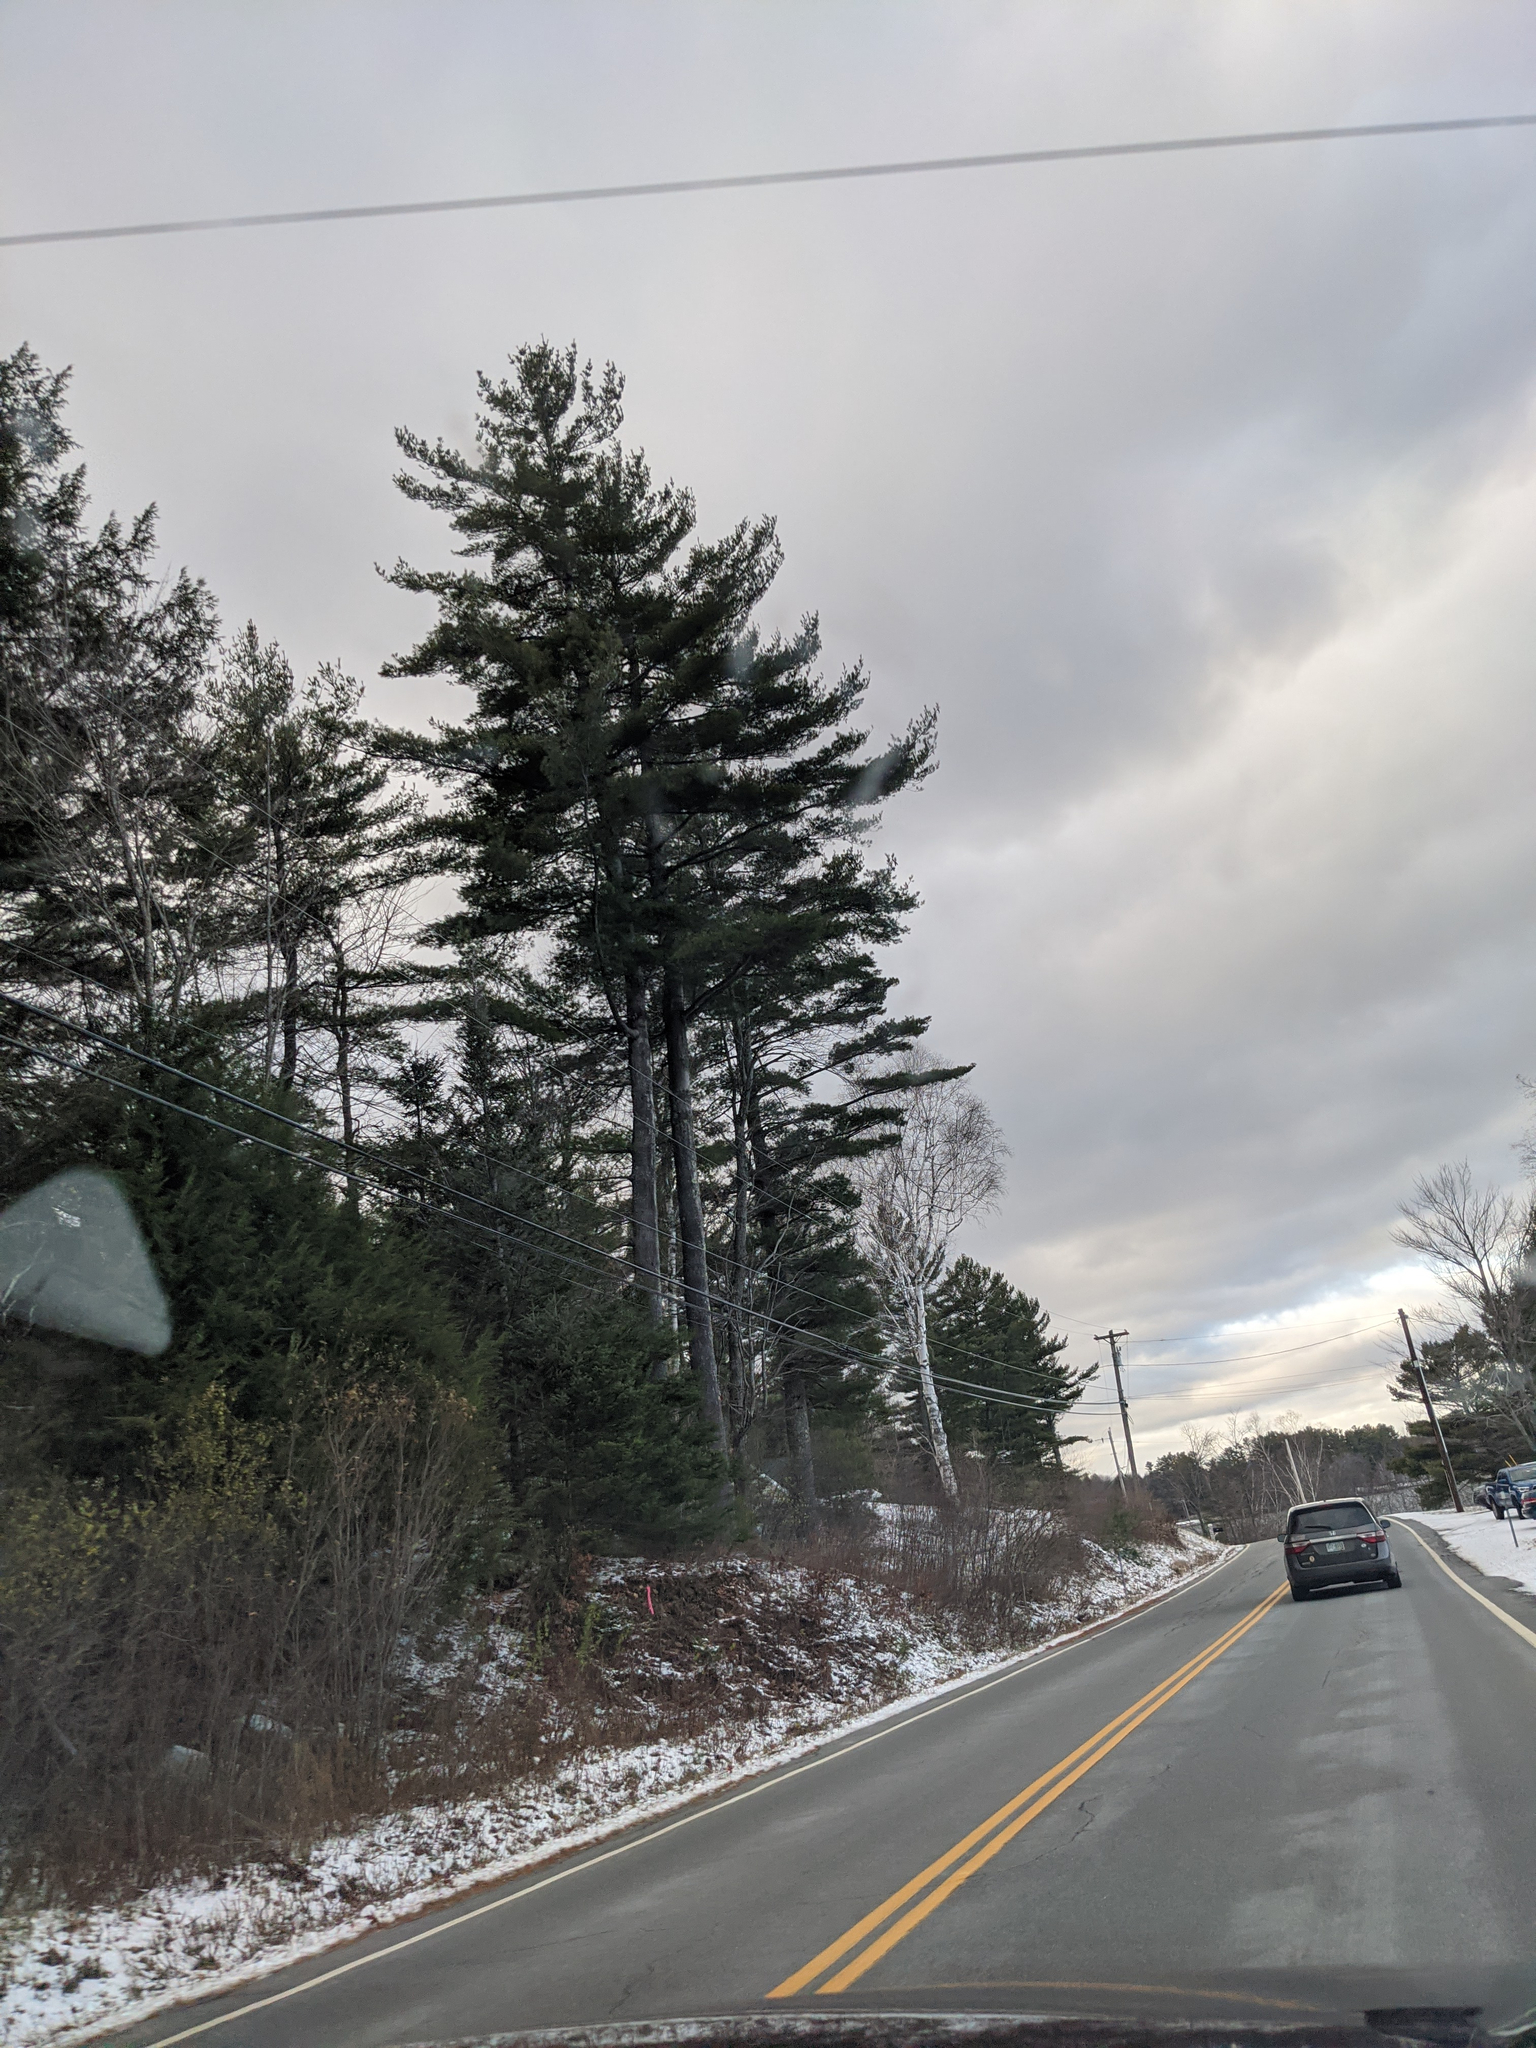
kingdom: Plantae
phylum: Tracheophyta
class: Pinopsida
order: Pinales
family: Pinaceae
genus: Pinus
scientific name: Pinus strobus
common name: Weymouth pine
